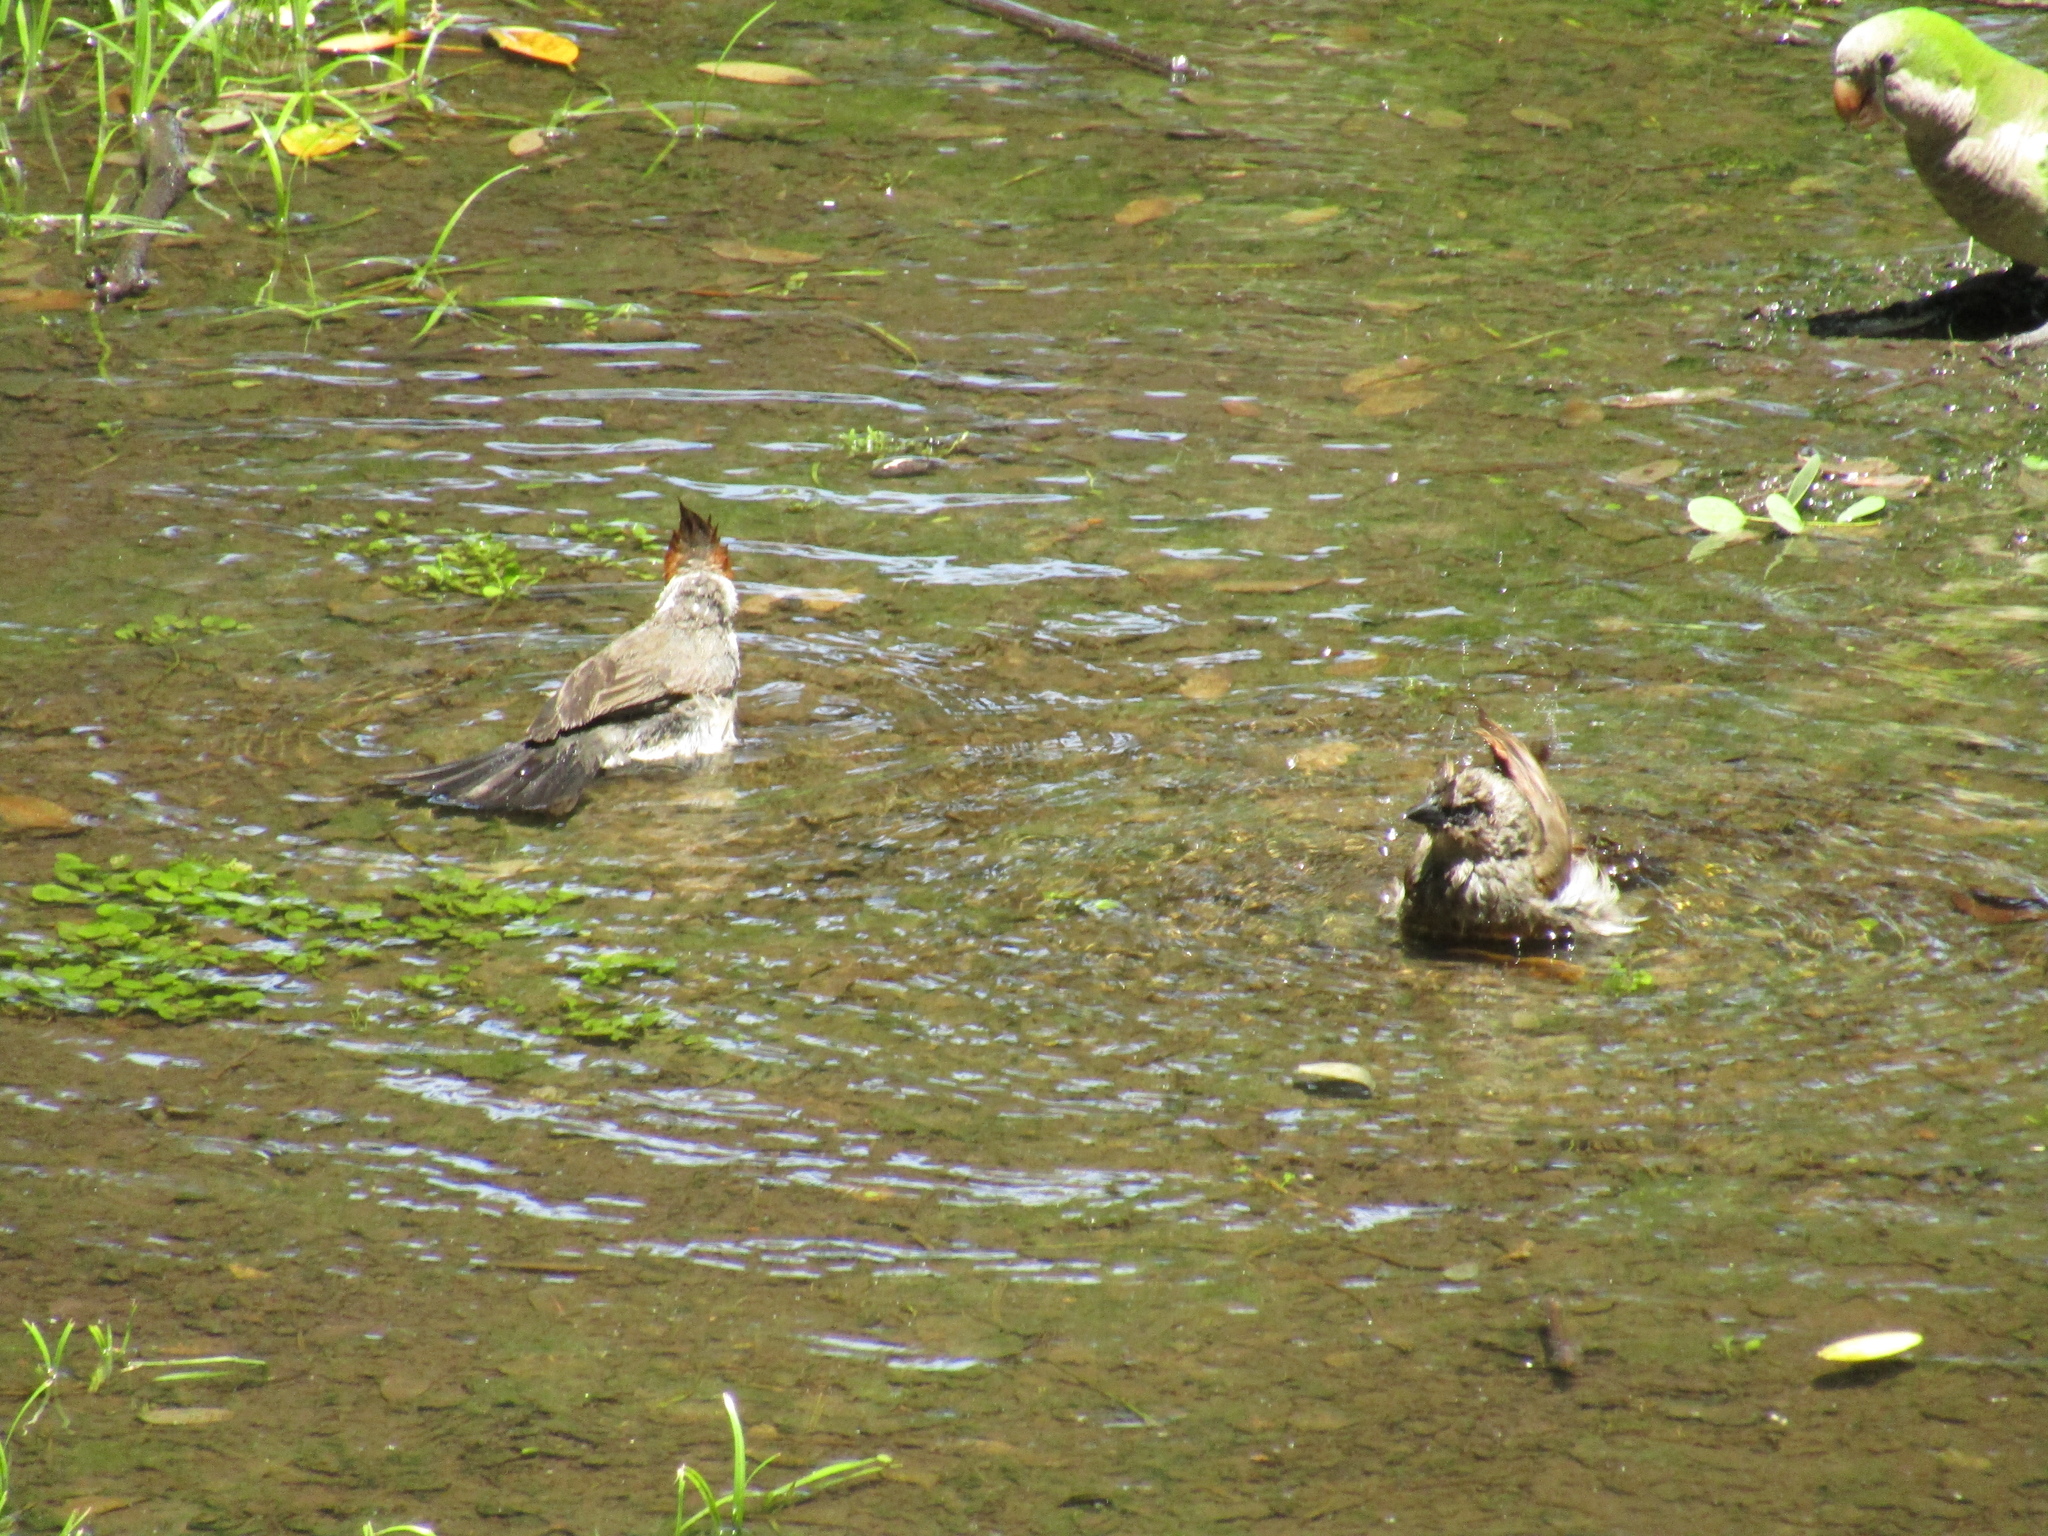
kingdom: Animalia
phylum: Chordata
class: Aves
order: Passeriformes
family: Icteridae
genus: Agelaioides
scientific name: Agelaioides badius
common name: Baywing
